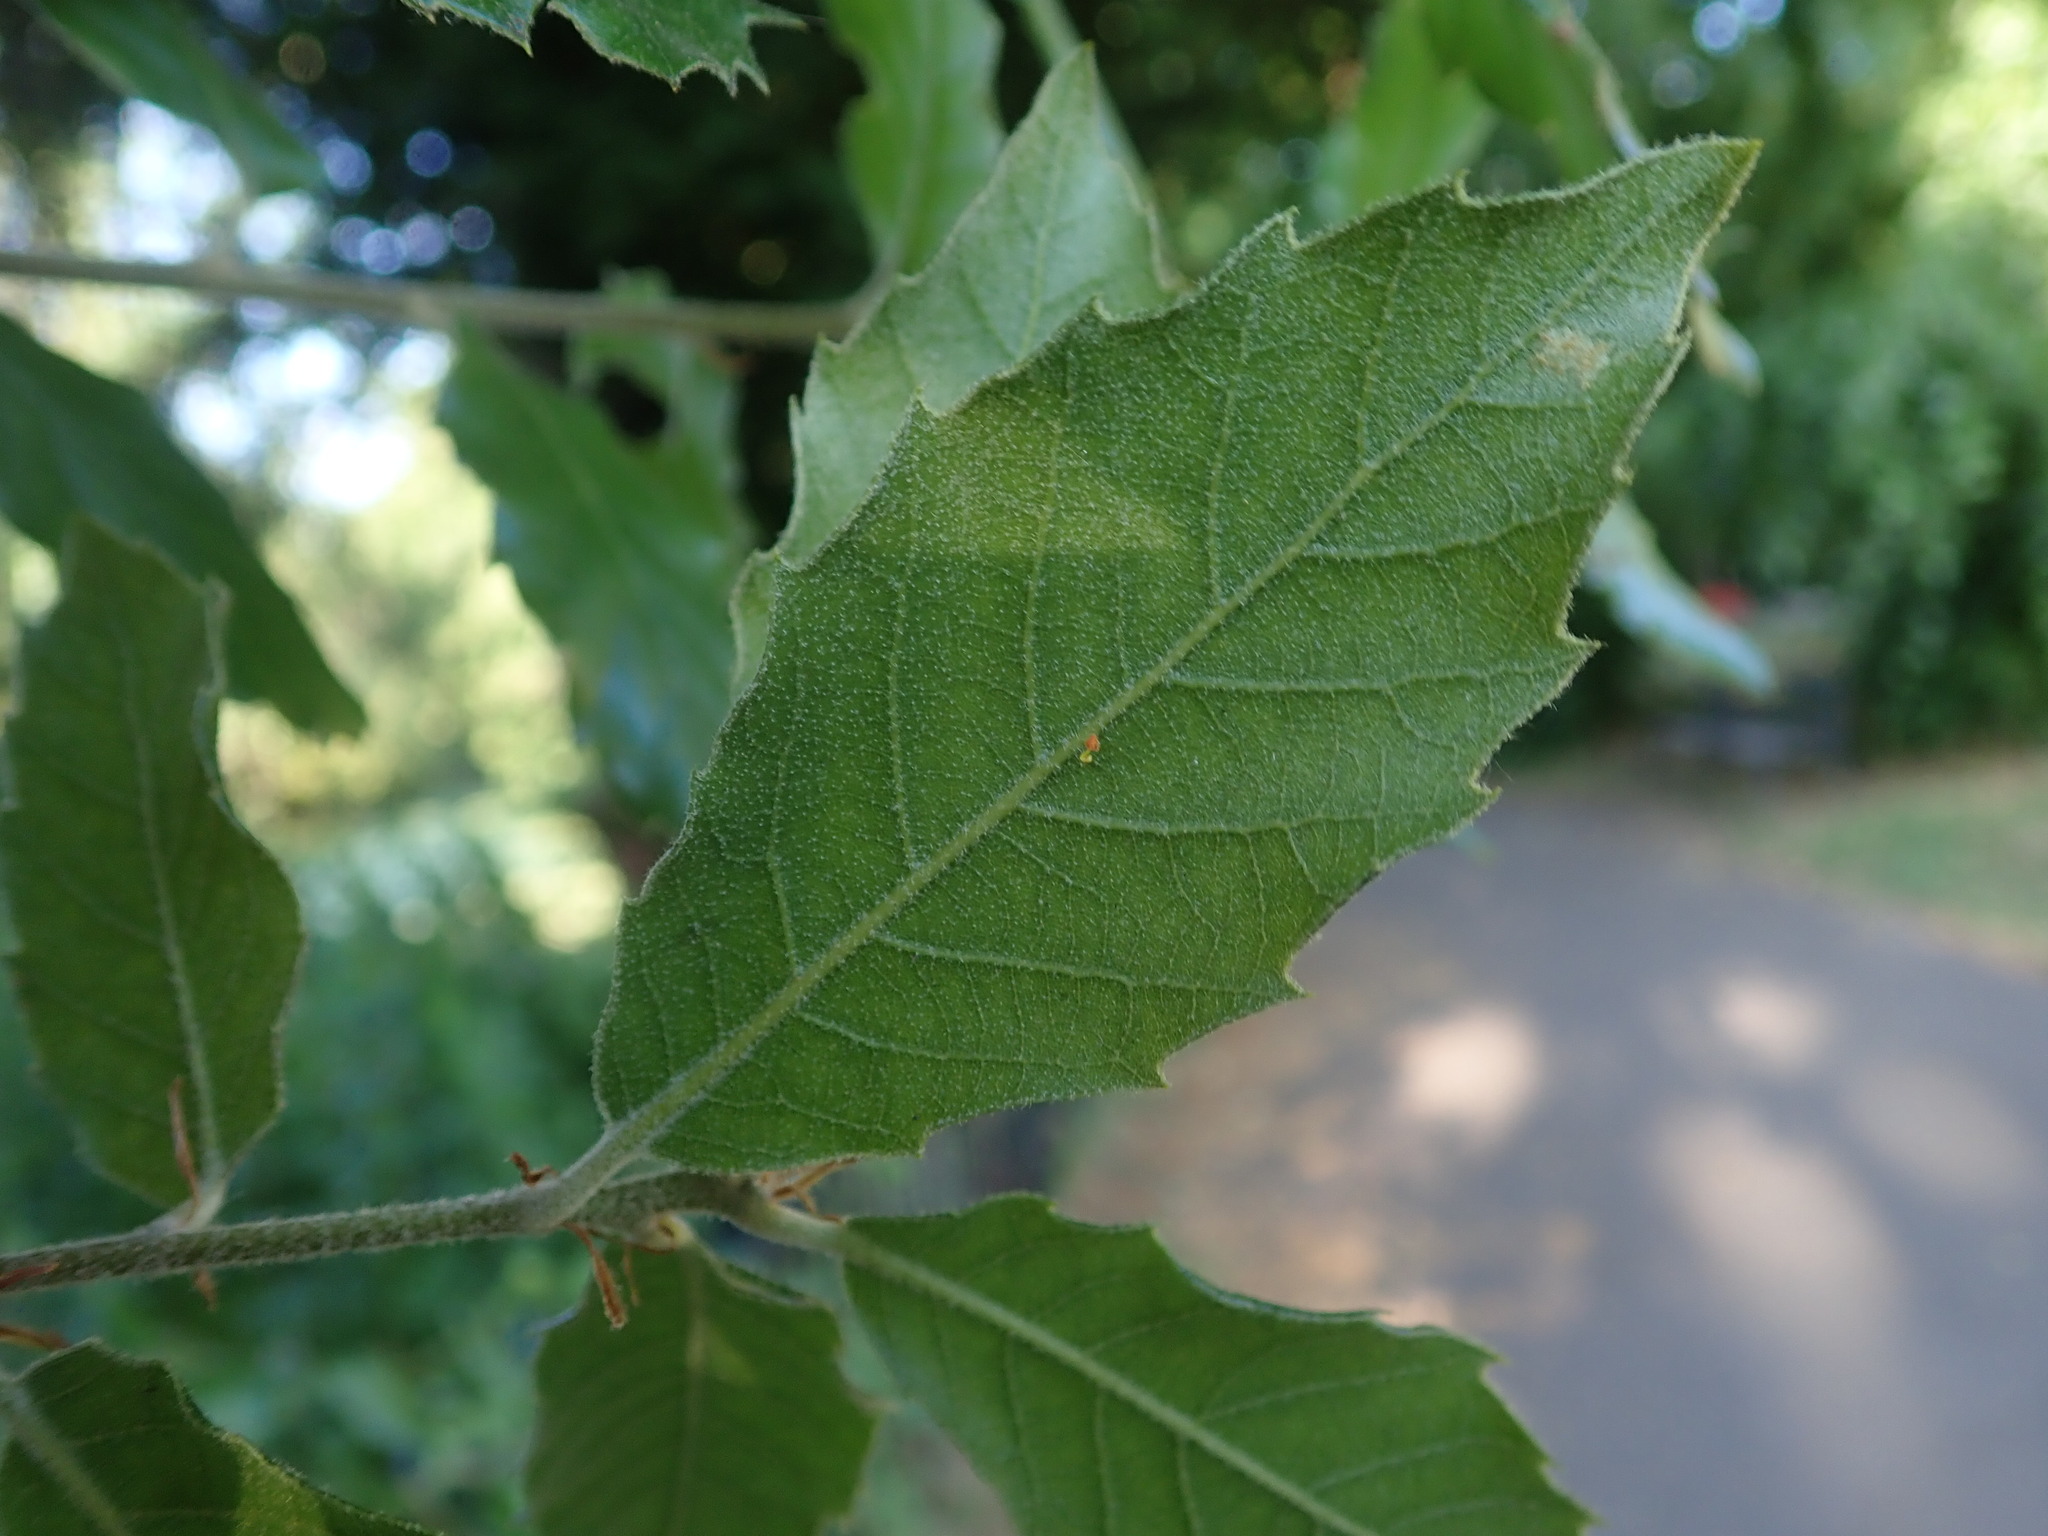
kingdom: Plantae
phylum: Tracheophyta
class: Magnoliopsida
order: Fagales
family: Fagaceae
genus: Quercus
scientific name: Quercus ilex
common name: Evergreen oak
